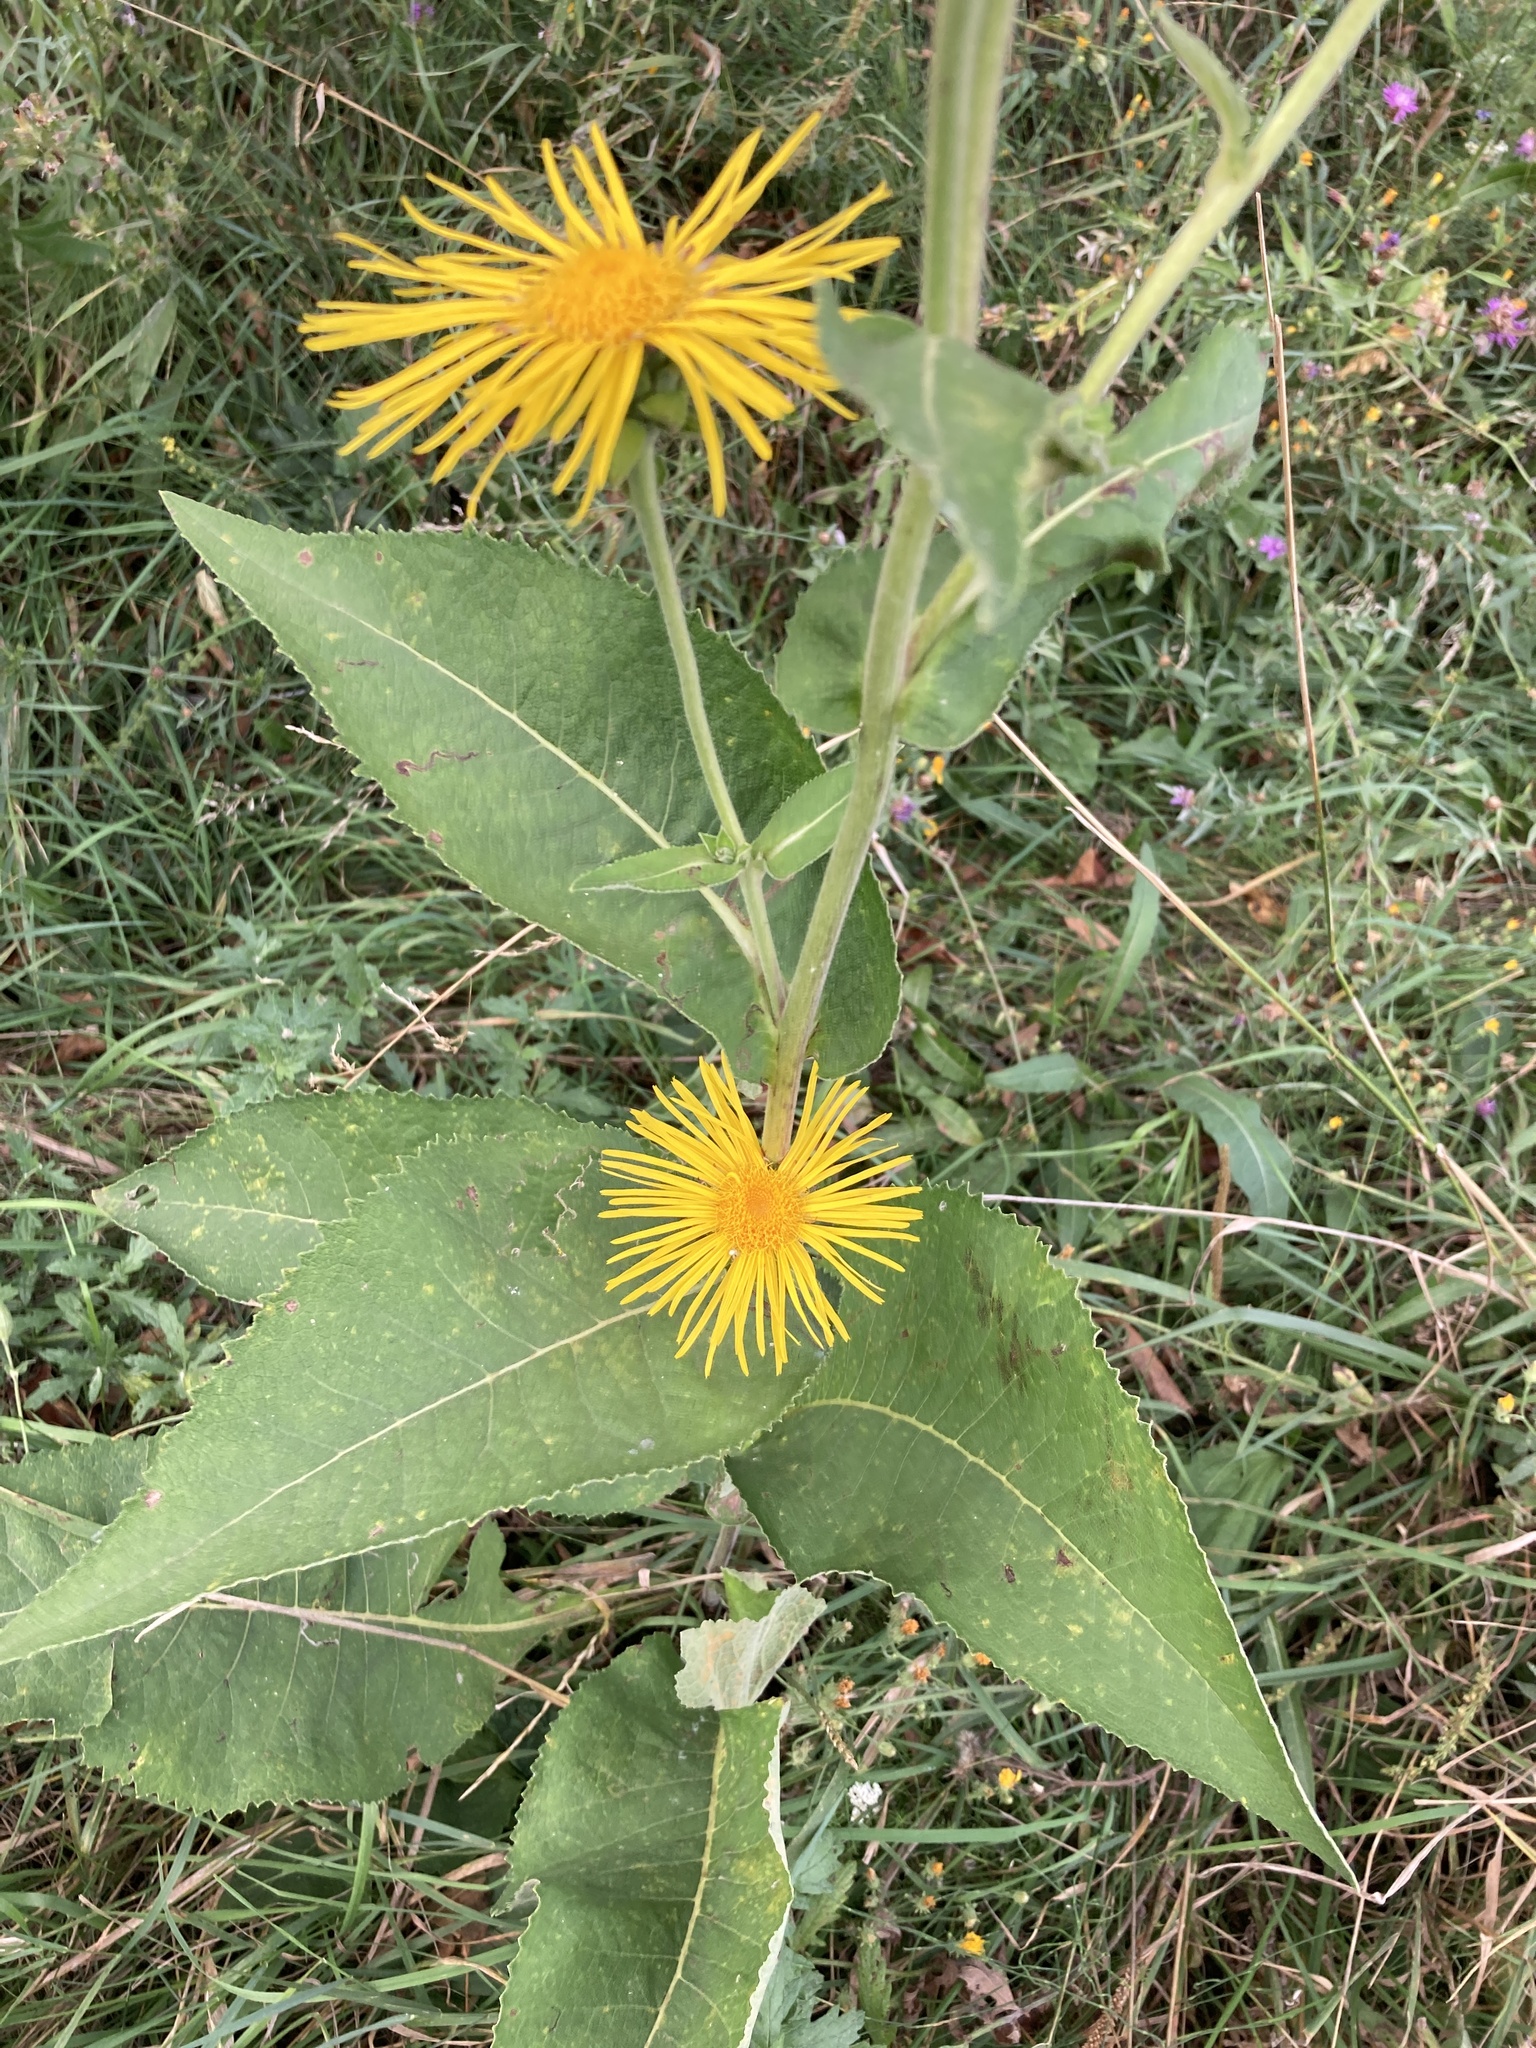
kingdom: Plantae
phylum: Tracheophyta
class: Magnoliopsida
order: Asterales
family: Asteraceae
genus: Inula
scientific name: Inula helenium
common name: Elecampane
